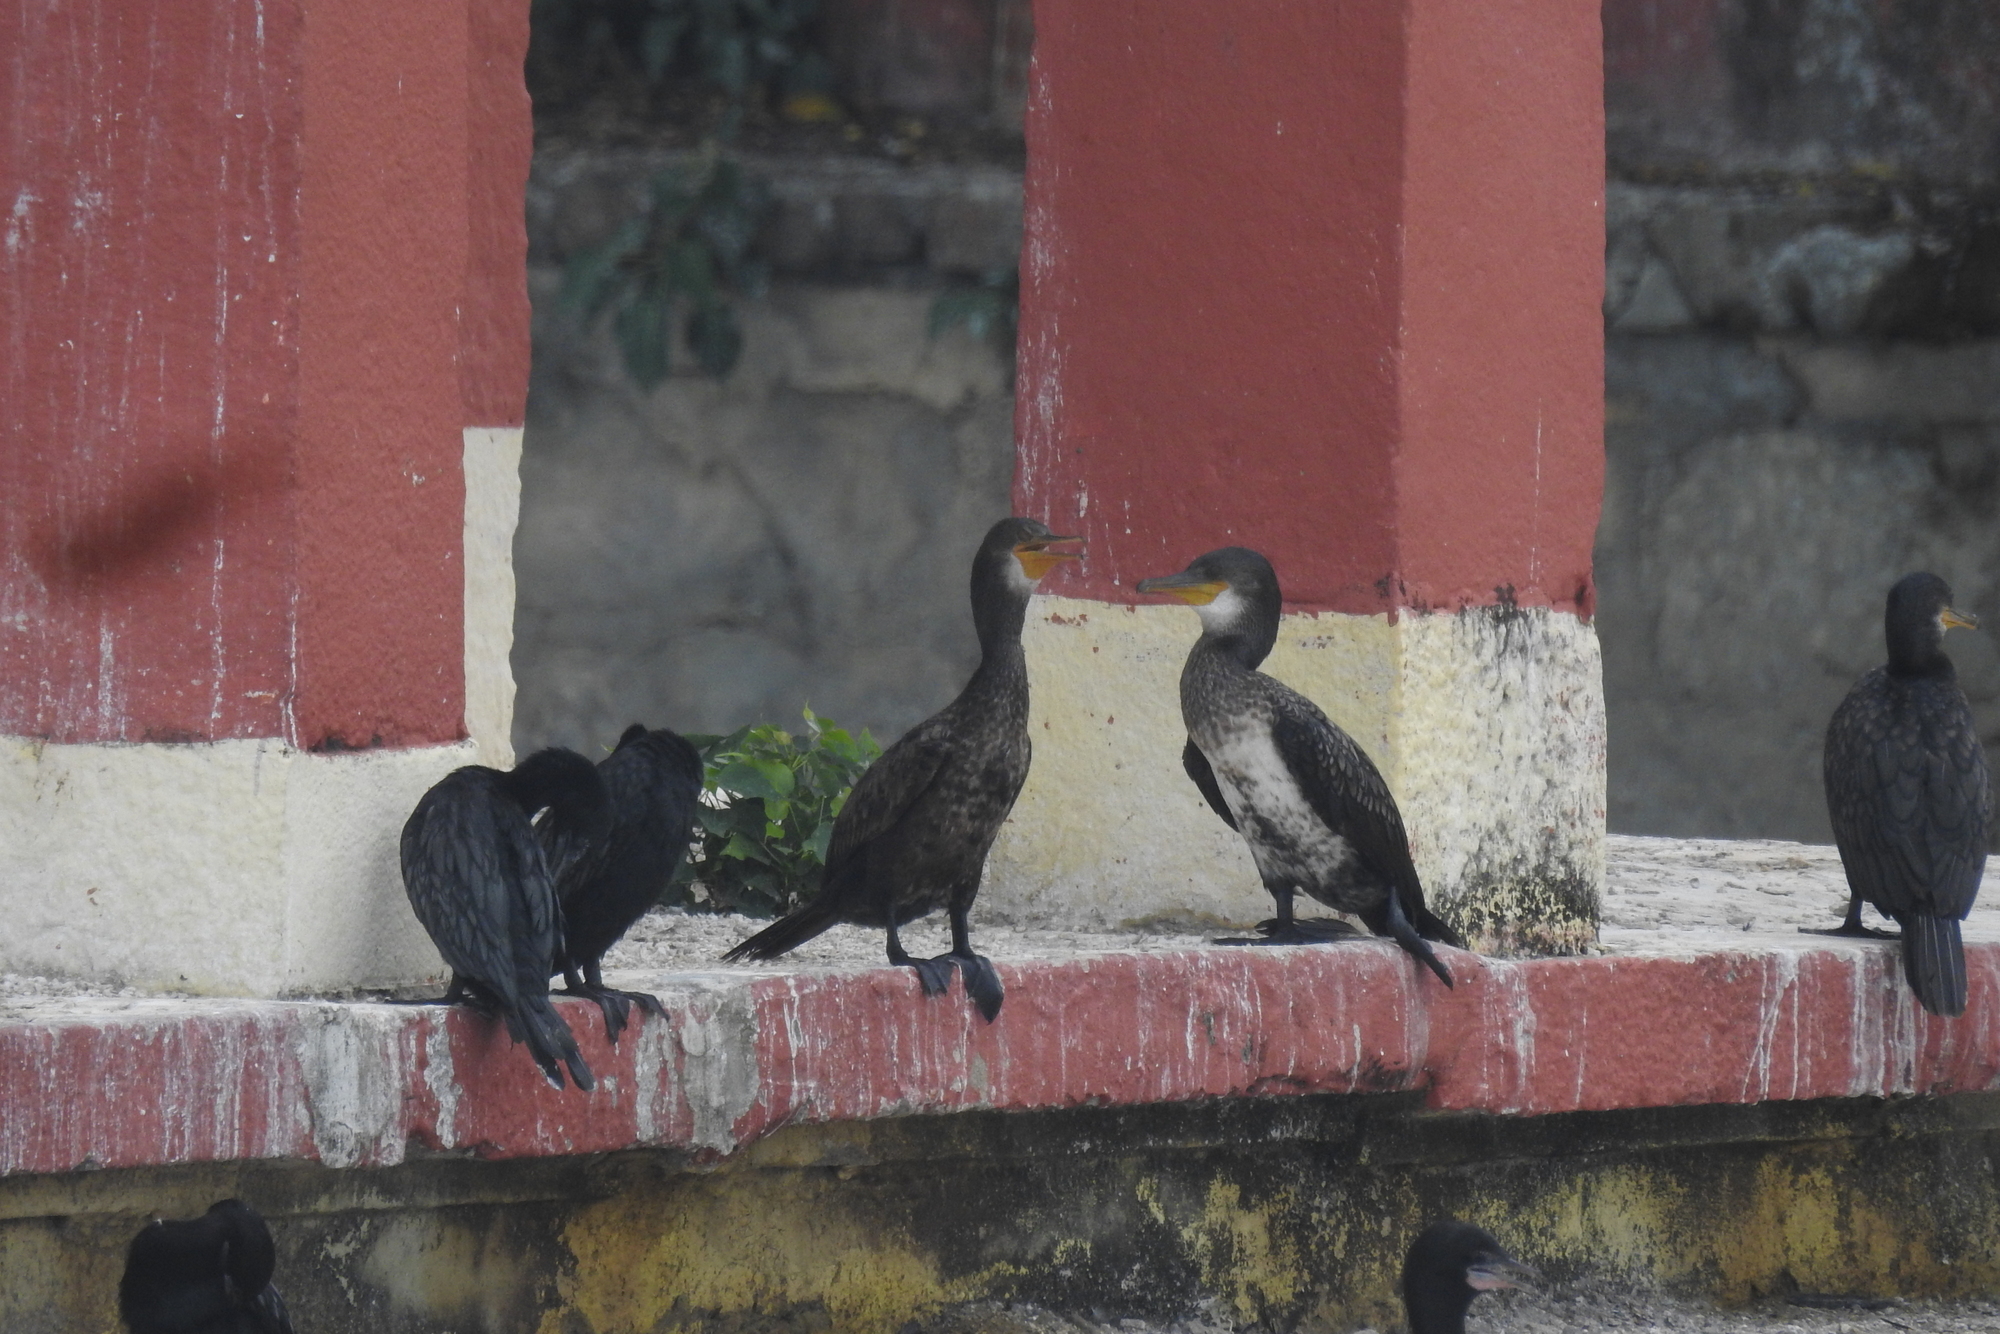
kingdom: Animalia
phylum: Chordata
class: Aves
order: Suliformes
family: Phalacrocoracidae
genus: Phalacrocorax
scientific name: Phalacrocorax fuscicollis
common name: Indian cormorant
